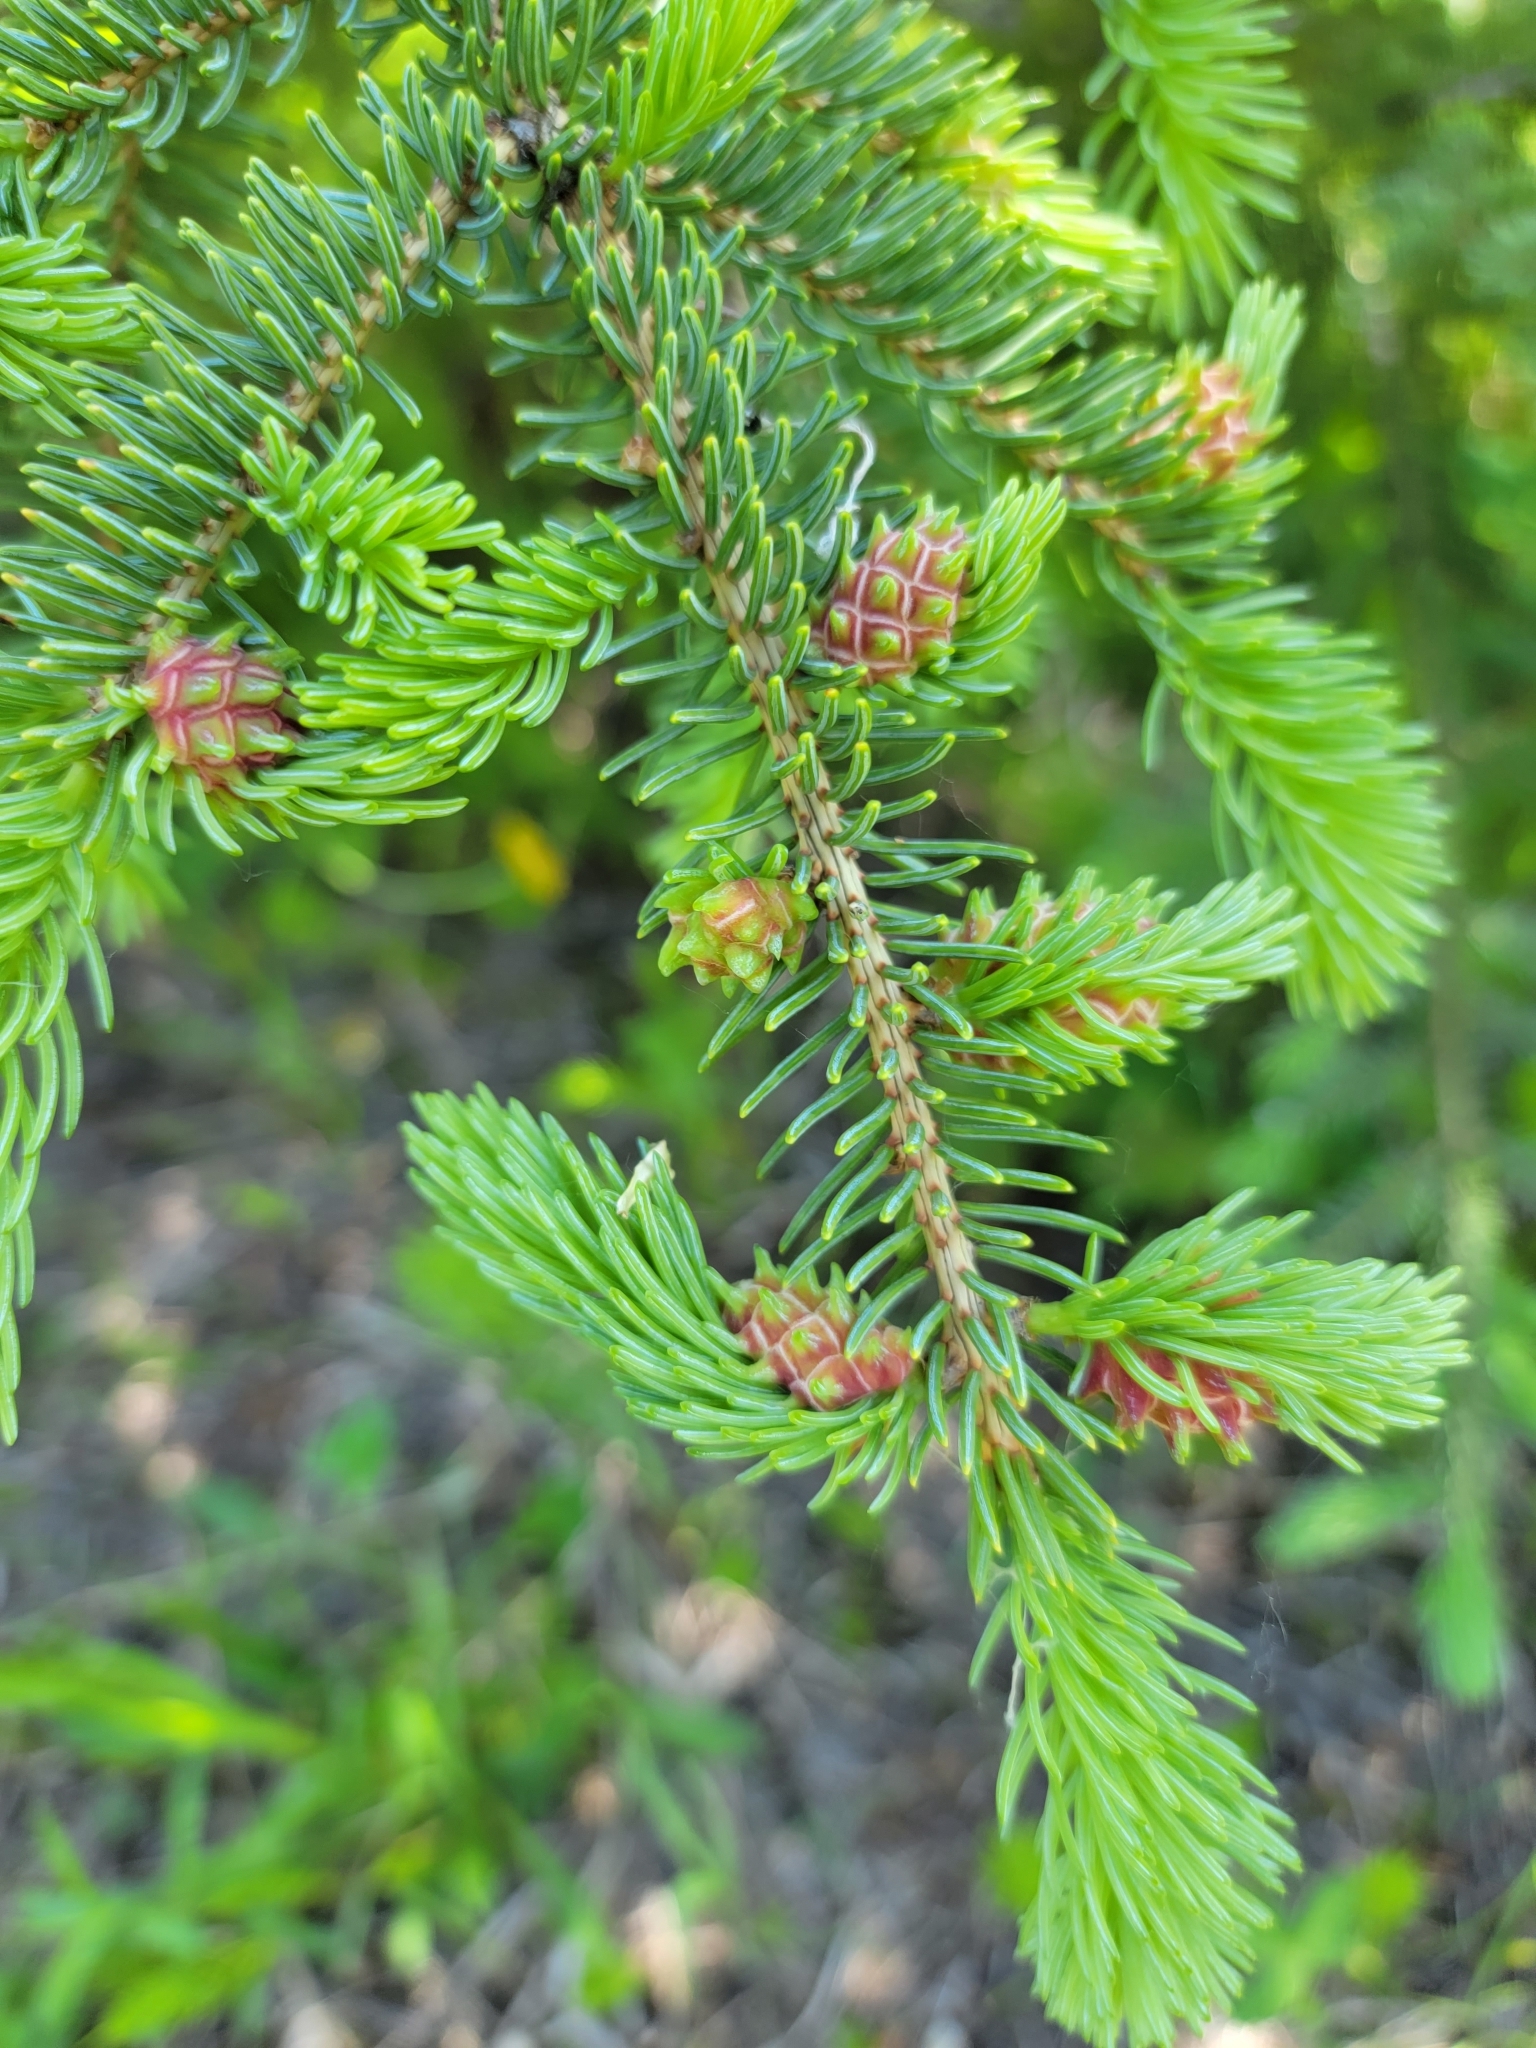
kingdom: Plantae
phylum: Tracheophyta
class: Pinopsida
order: Pinales
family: Pinaceae
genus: Picea
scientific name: Picea glauca
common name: White spruce
